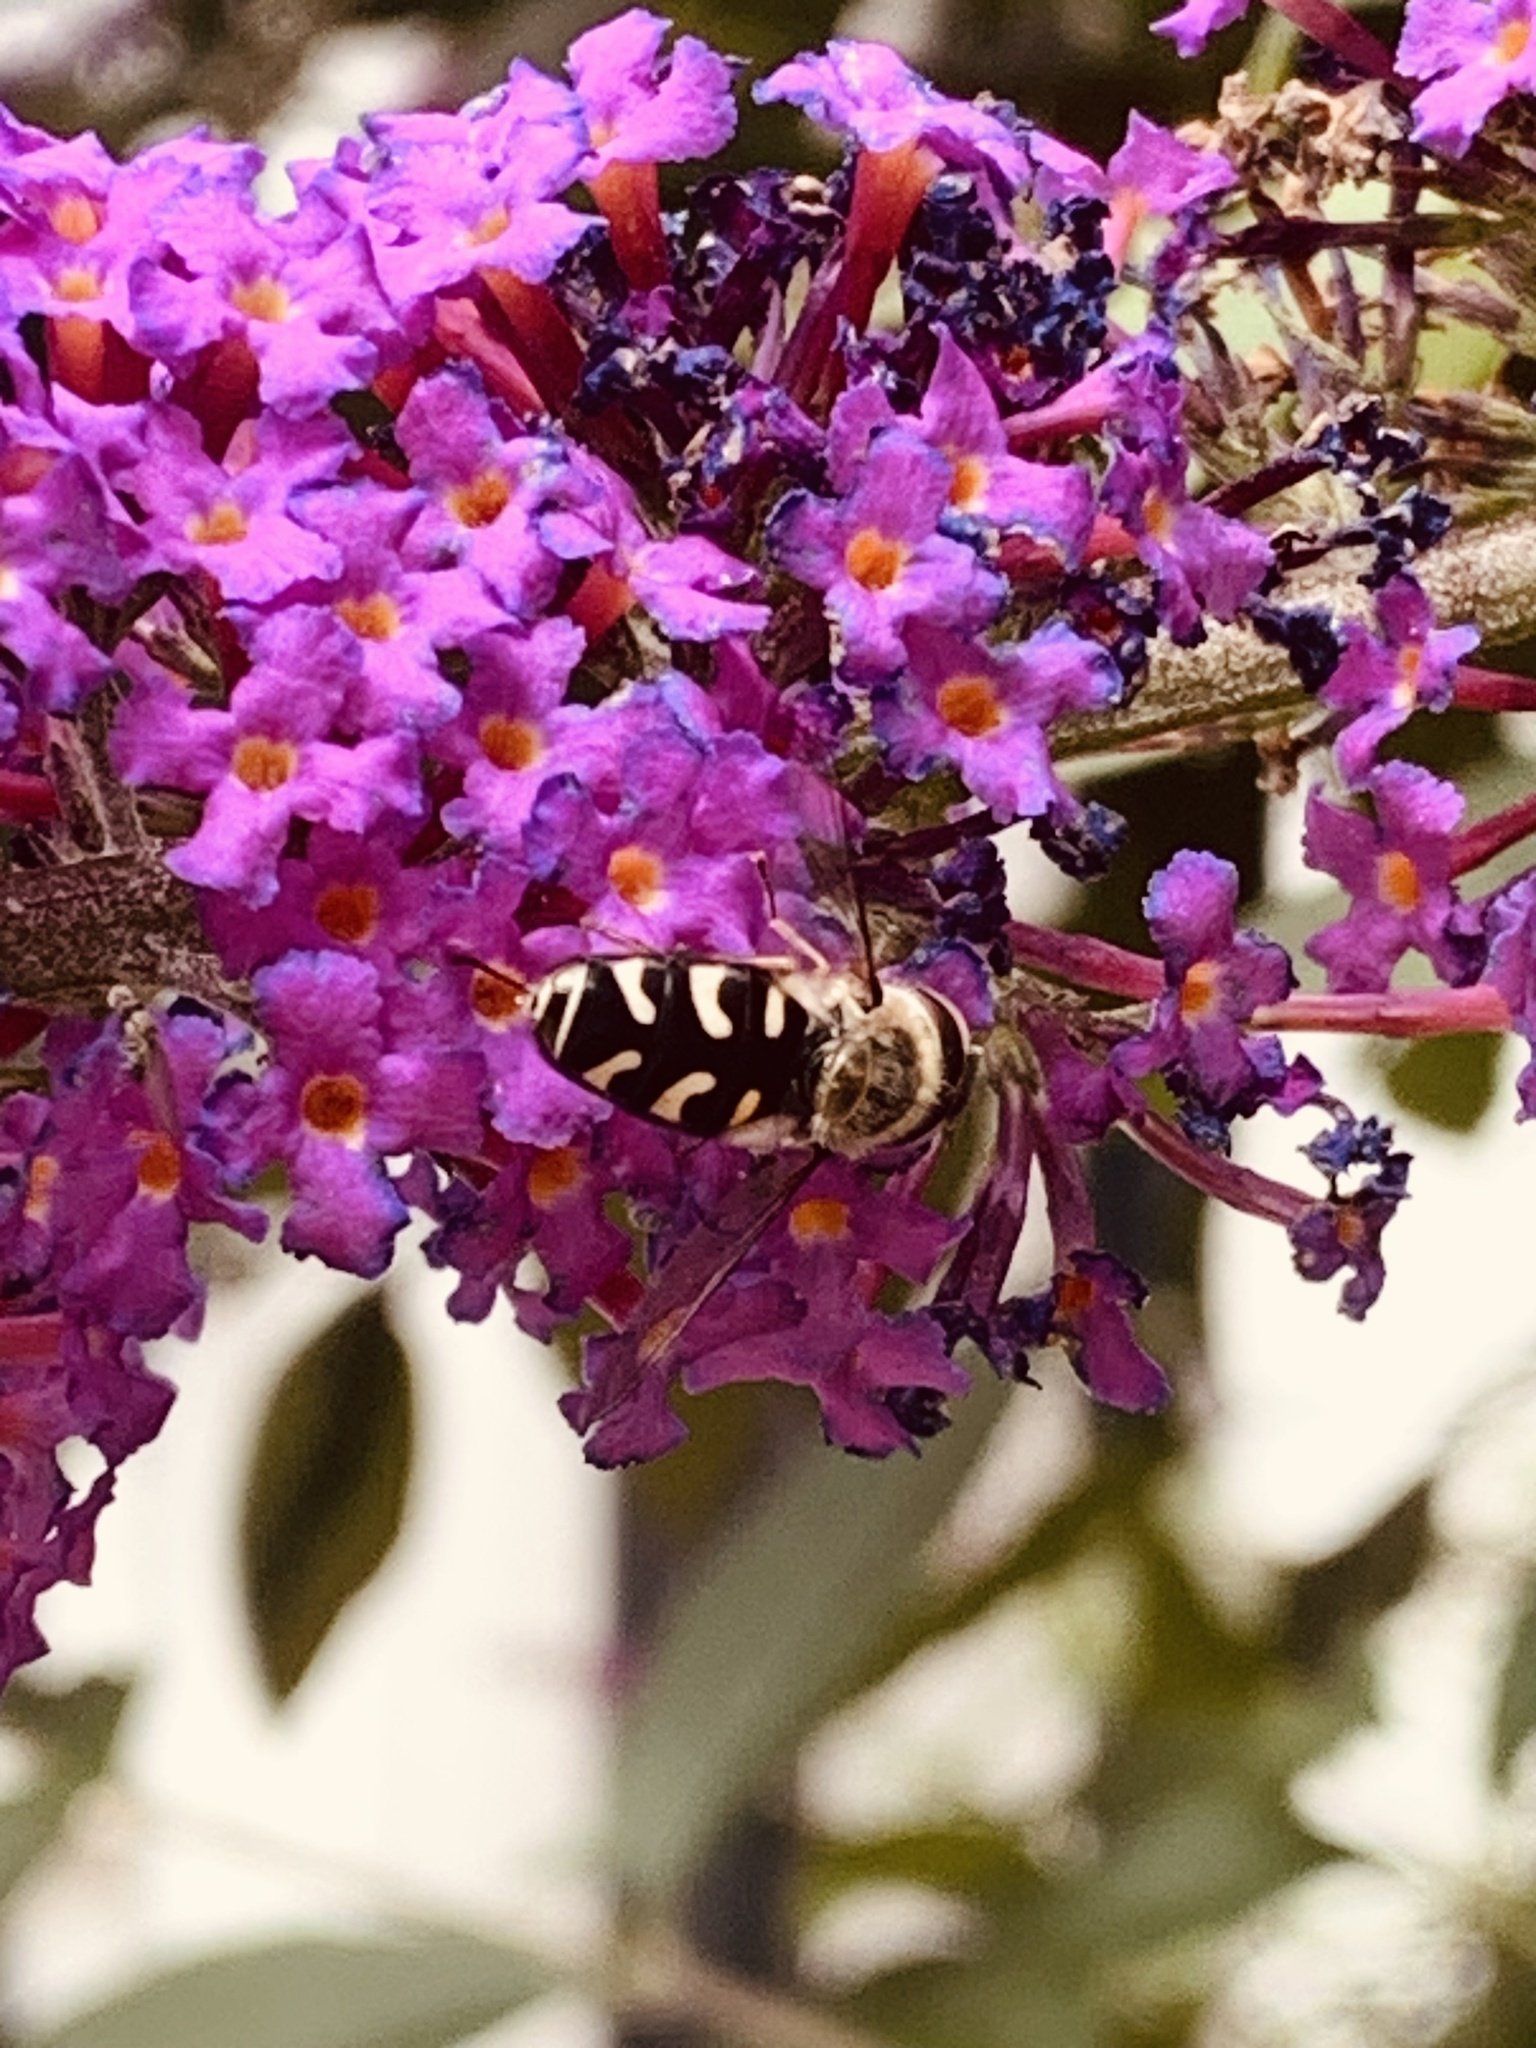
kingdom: Animalia
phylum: Arthropoda
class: Insecta
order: Diptera
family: Syrphidae
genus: Scaeva
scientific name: Scaeva pyrastri
